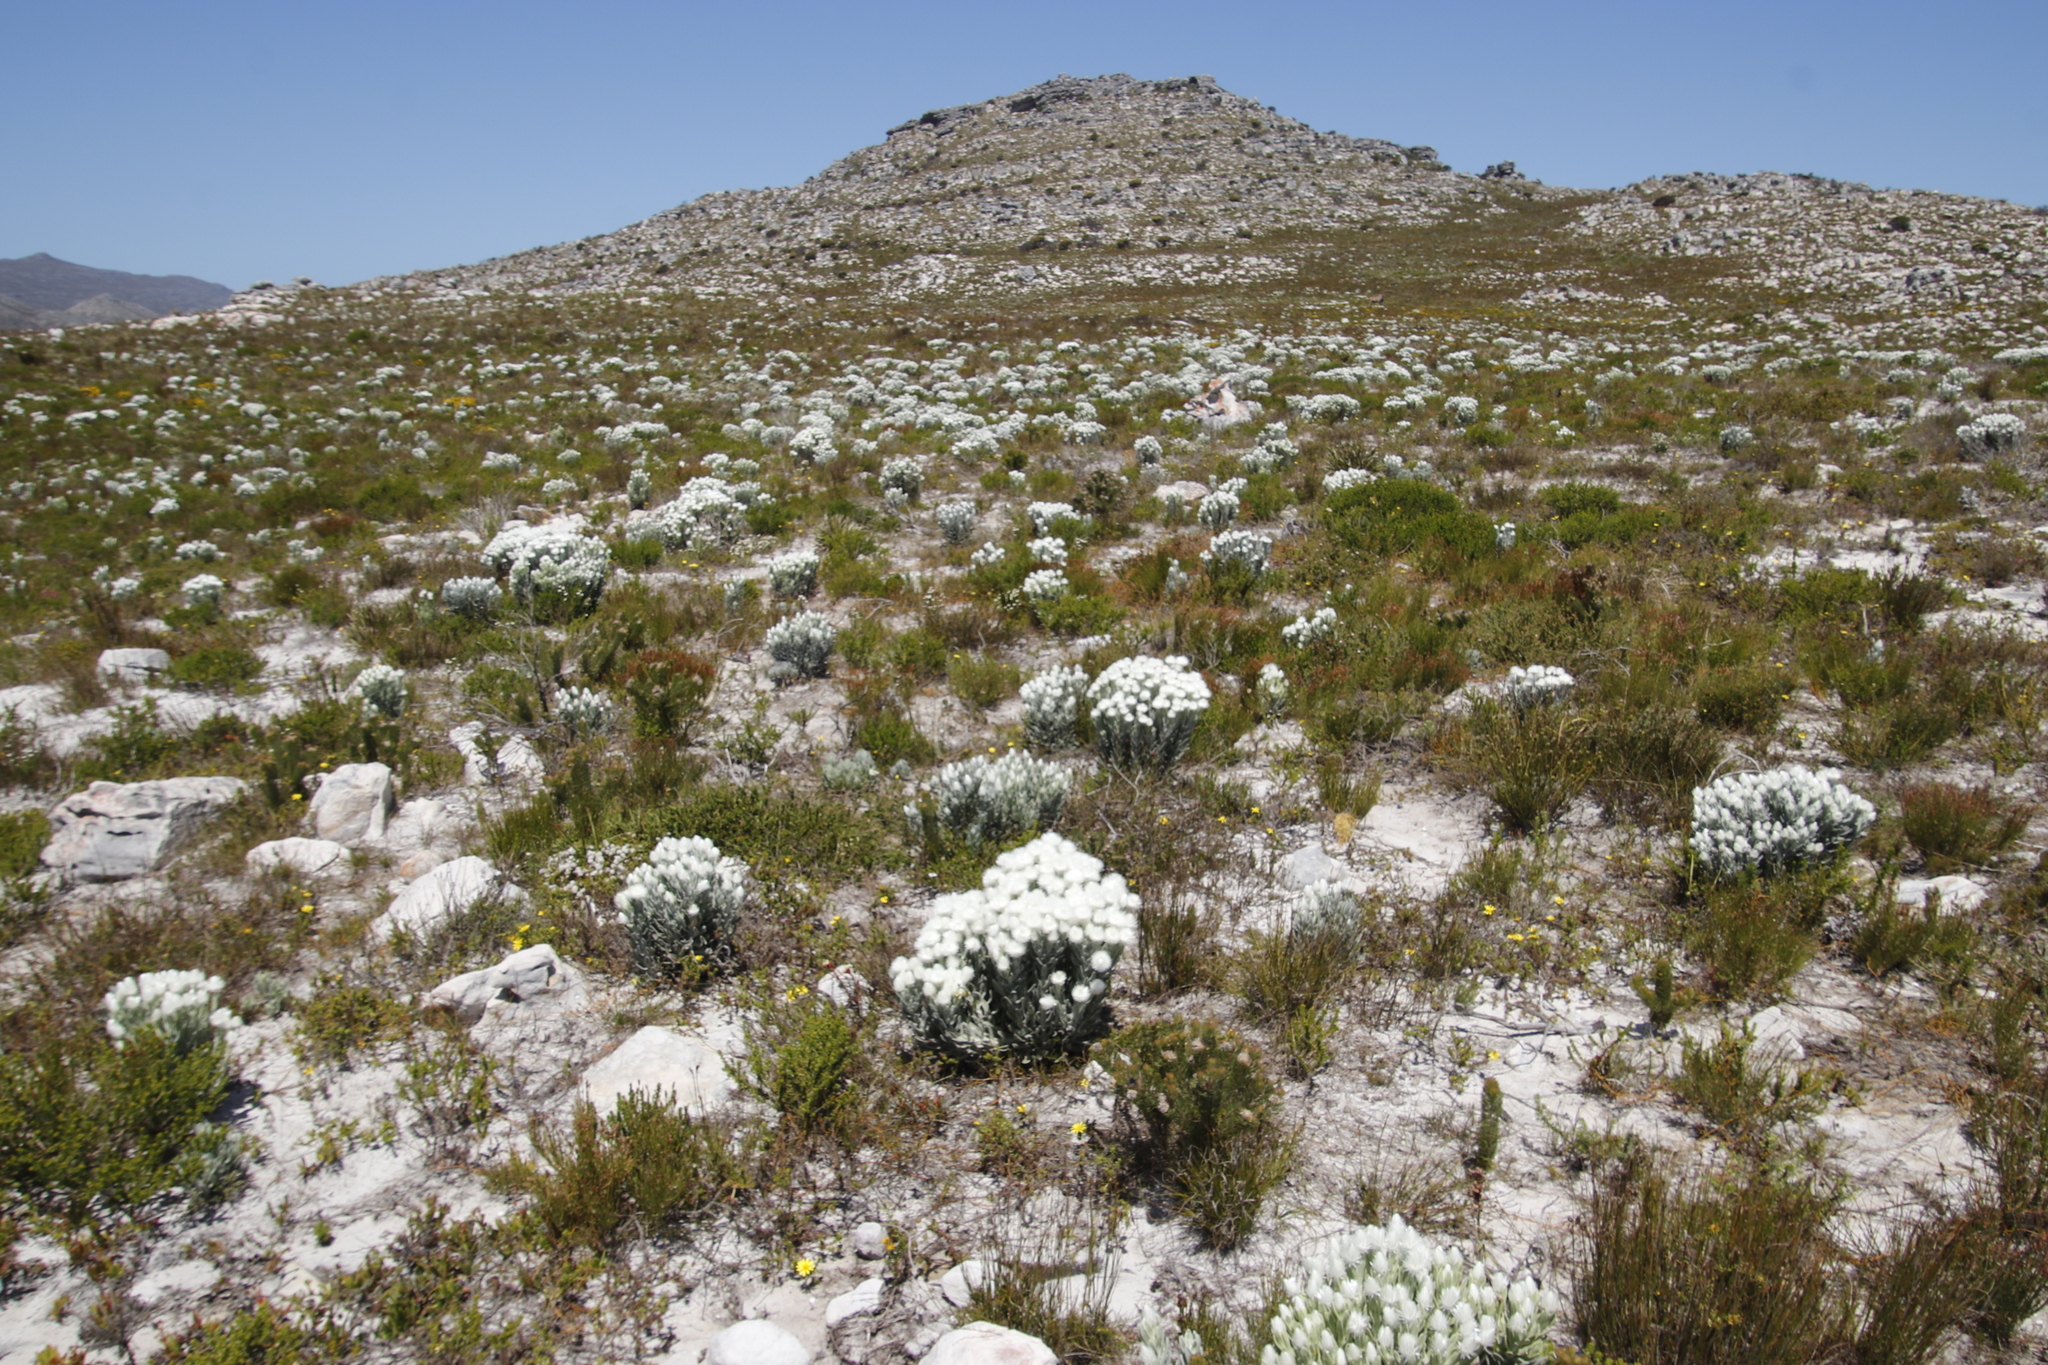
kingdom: Plantae
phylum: Tracheophyta
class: Magnoliopsida
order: Asterales
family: Asteraceae
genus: Syncarpha
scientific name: Syncarpha vestita
